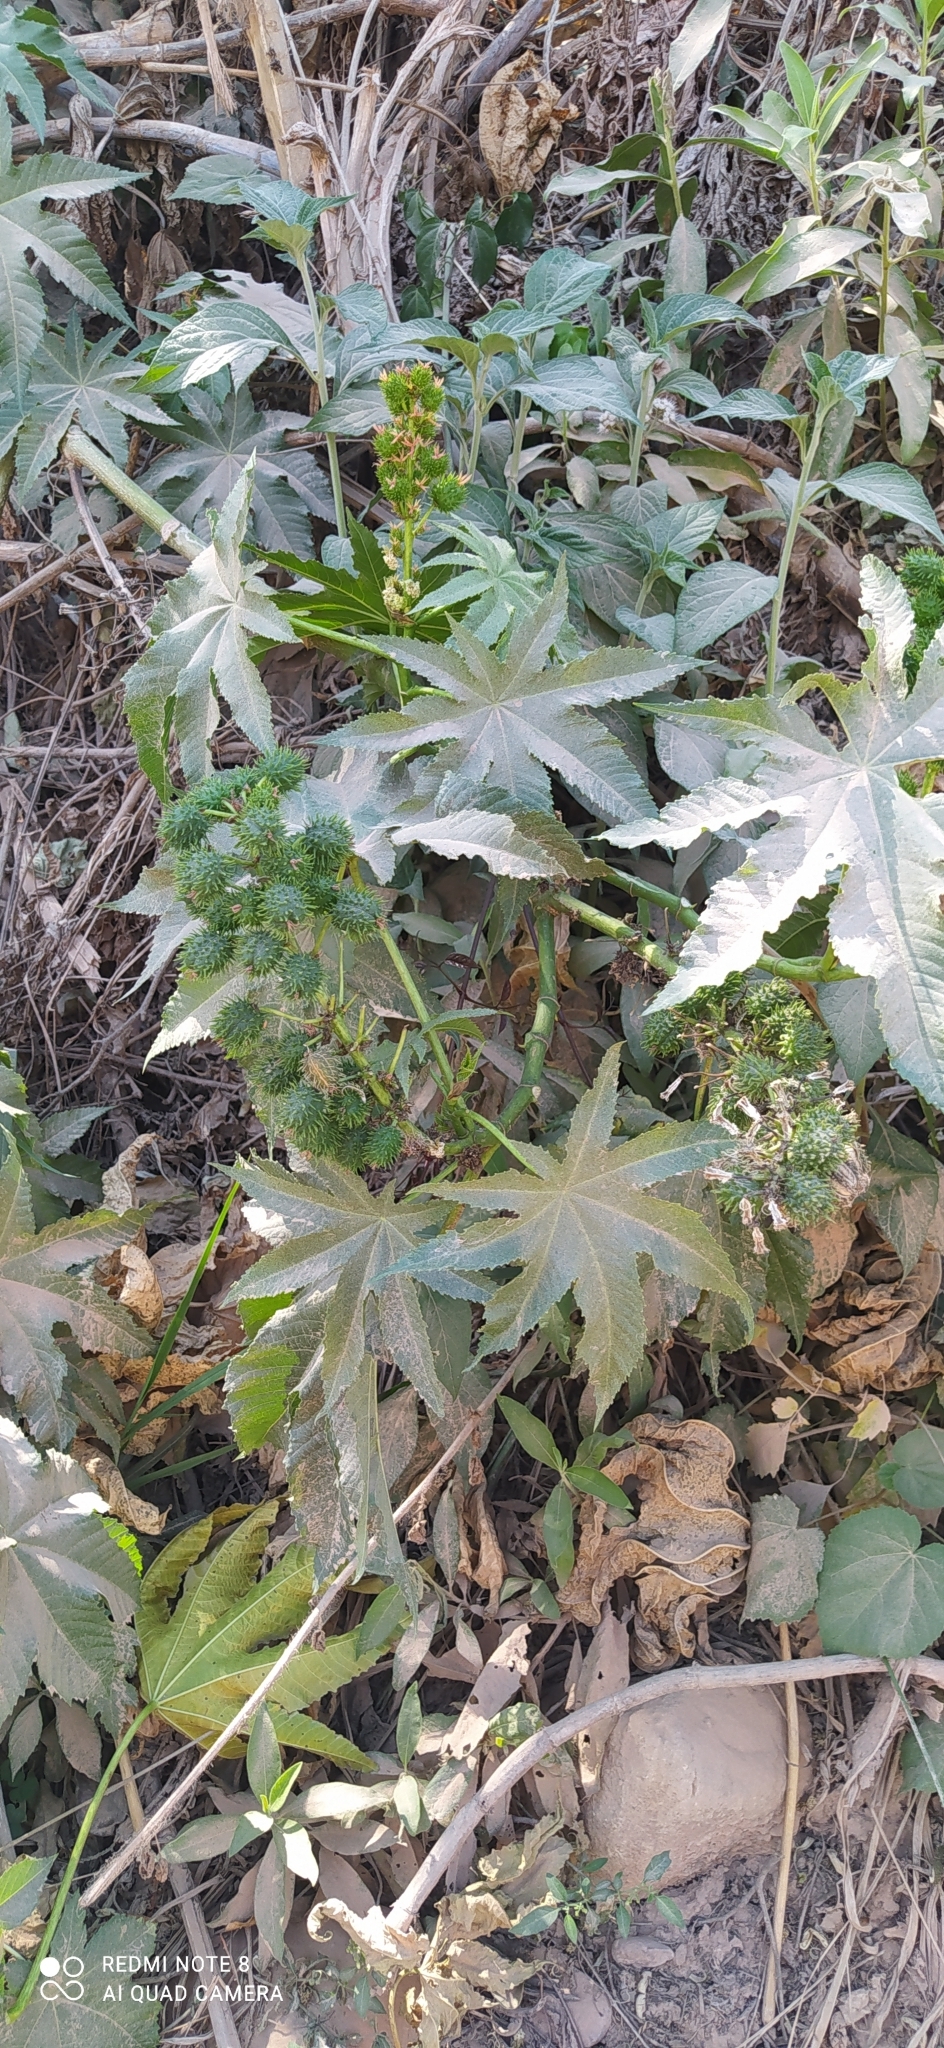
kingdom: Plantae
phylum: Tracheophyta
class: Magnoliopsida
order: Malpighiales
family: Euphorbiaceae
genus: Ricinus
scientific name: Ricinus communis
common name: Castor-oil-plant
